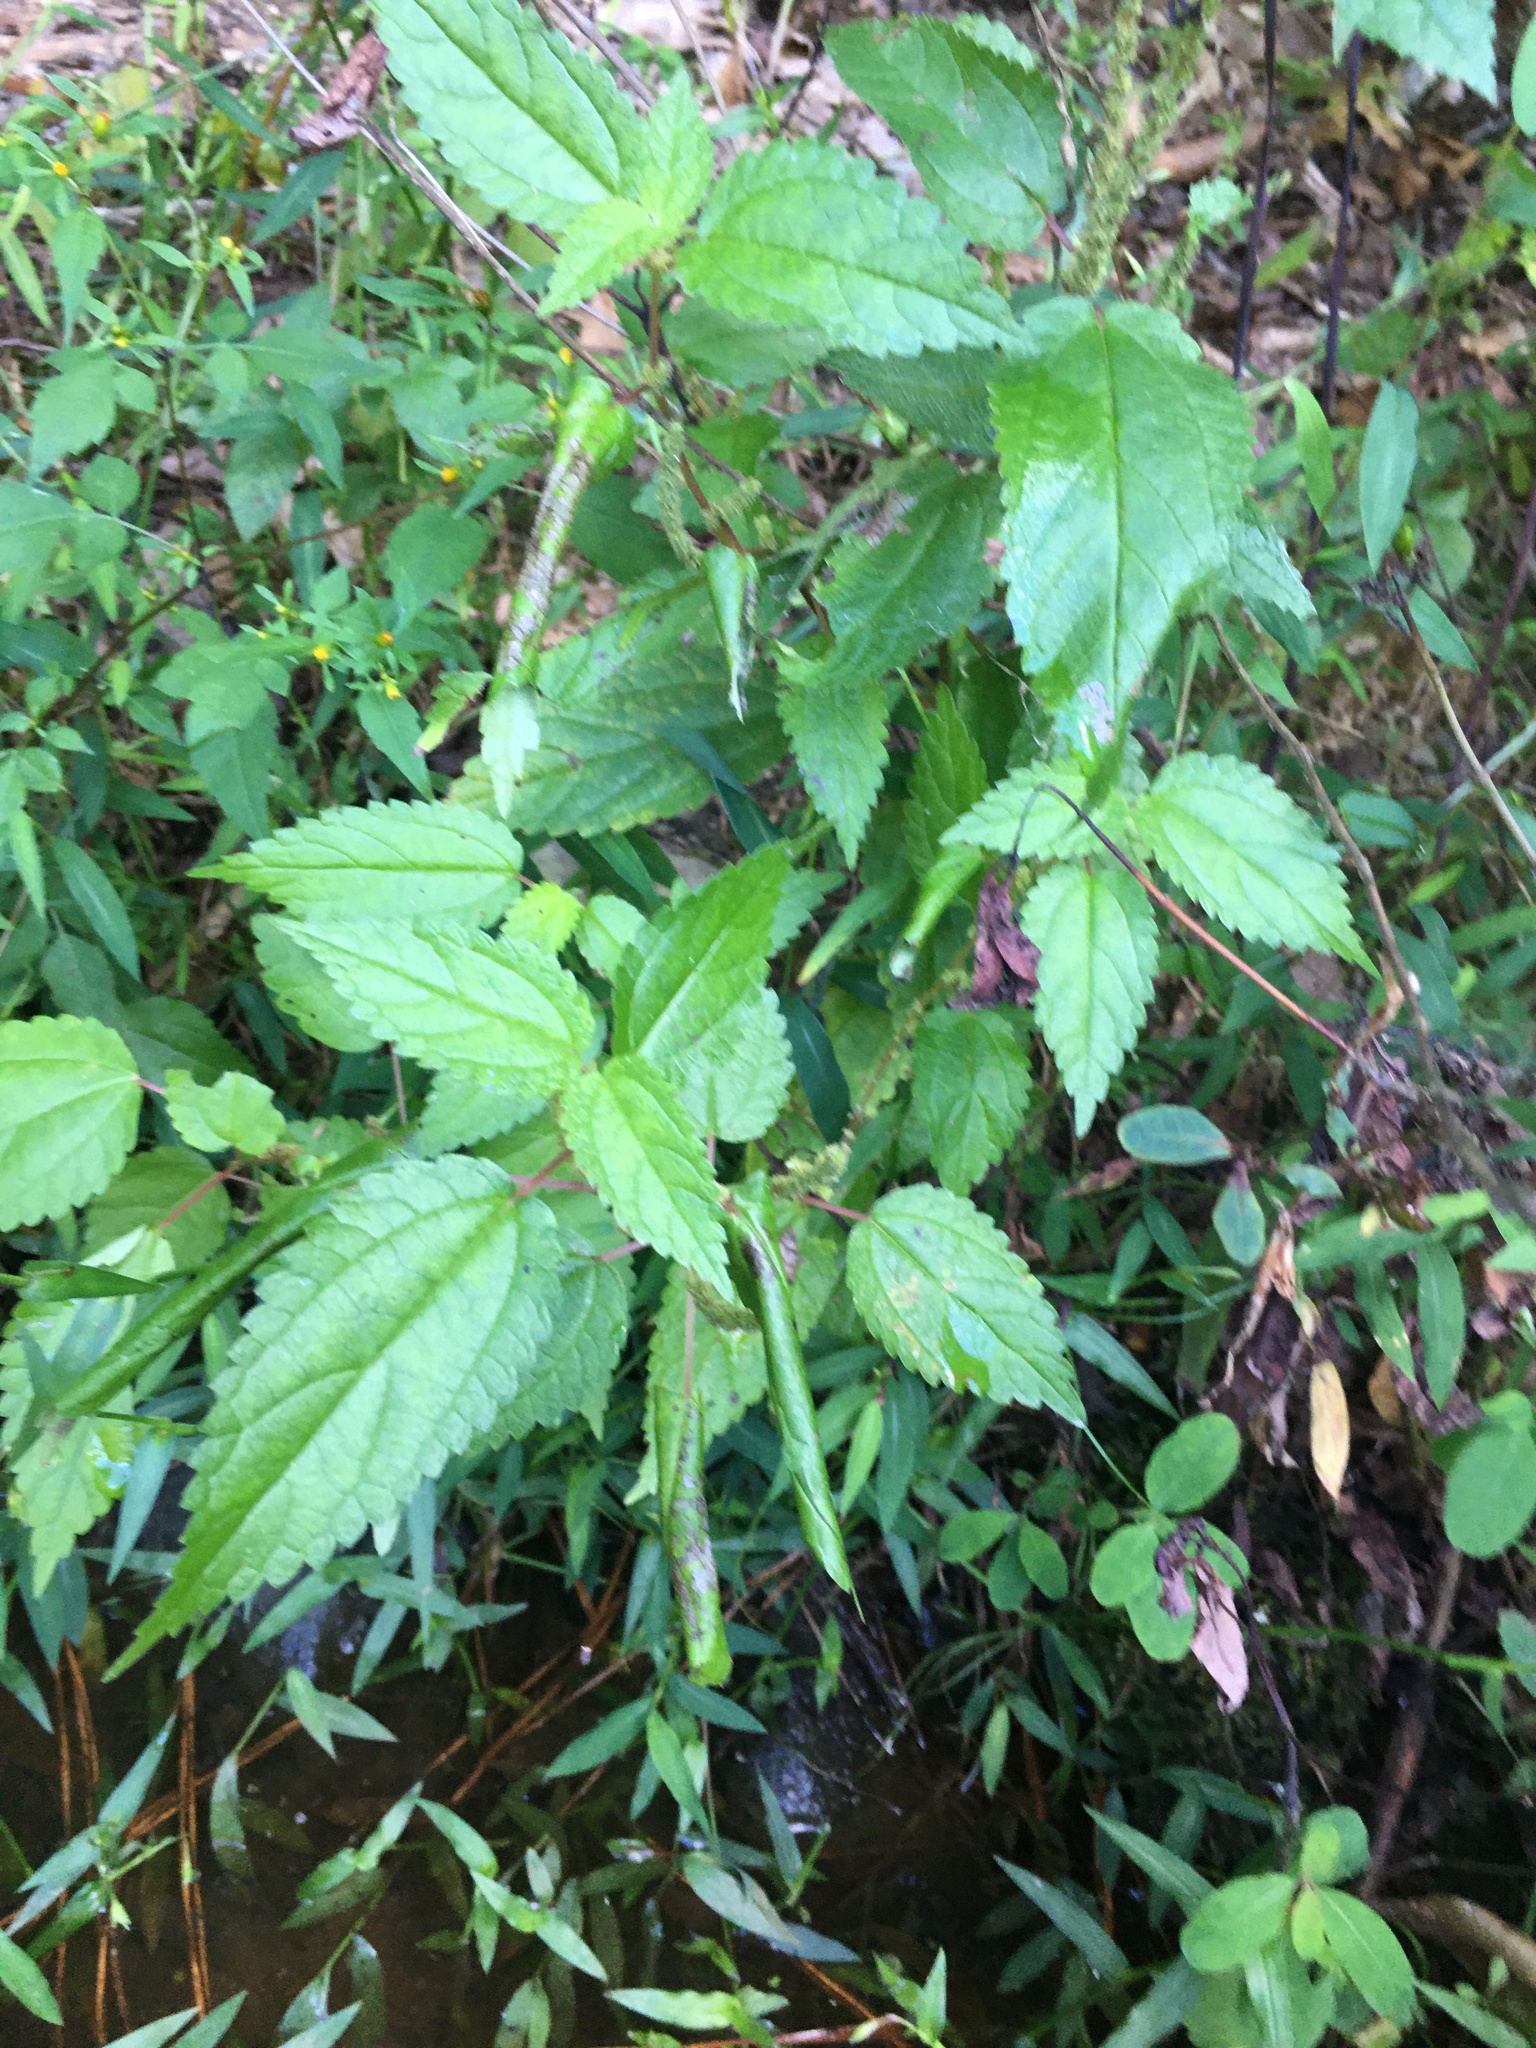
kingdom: Plantae
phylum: Tracheophyta
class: Magnoliopsida
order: Rosales
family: Urticaceae
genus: Boehmeria
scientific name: Boehmeria cylindrica
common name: Bog-hemp
